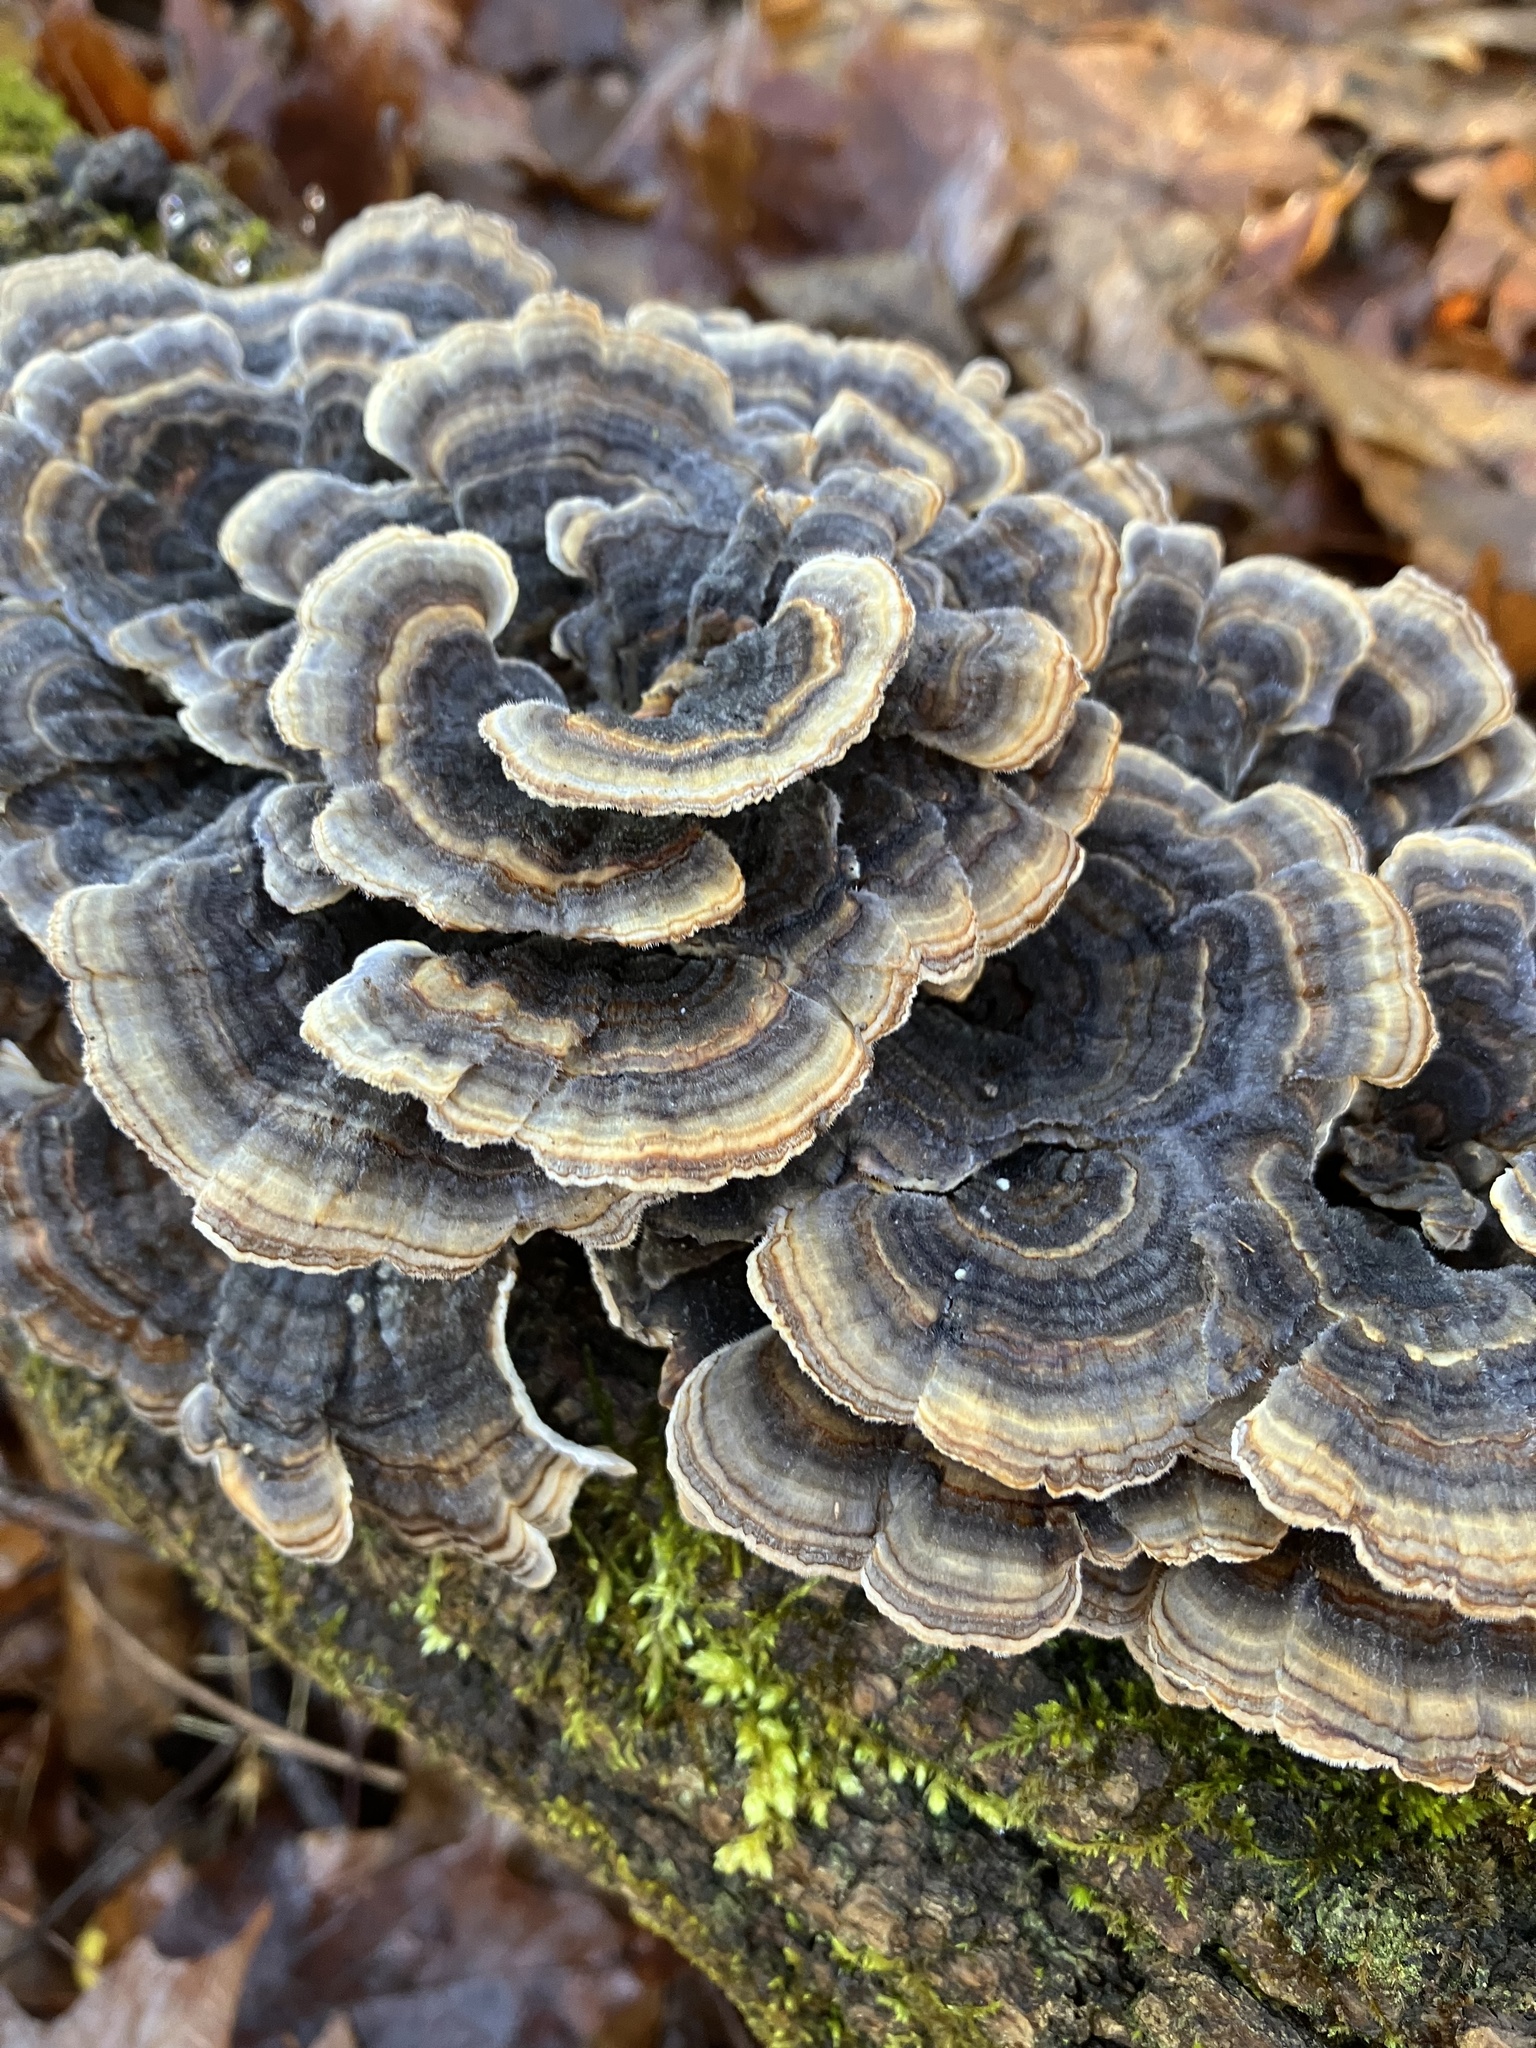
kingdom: Fungi
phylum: Basidiomycota
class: Agaricomycetes
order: Polyporales
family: Polyporaceae
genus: Trametes
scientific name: Trametes versicolor
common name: Turkeytail
